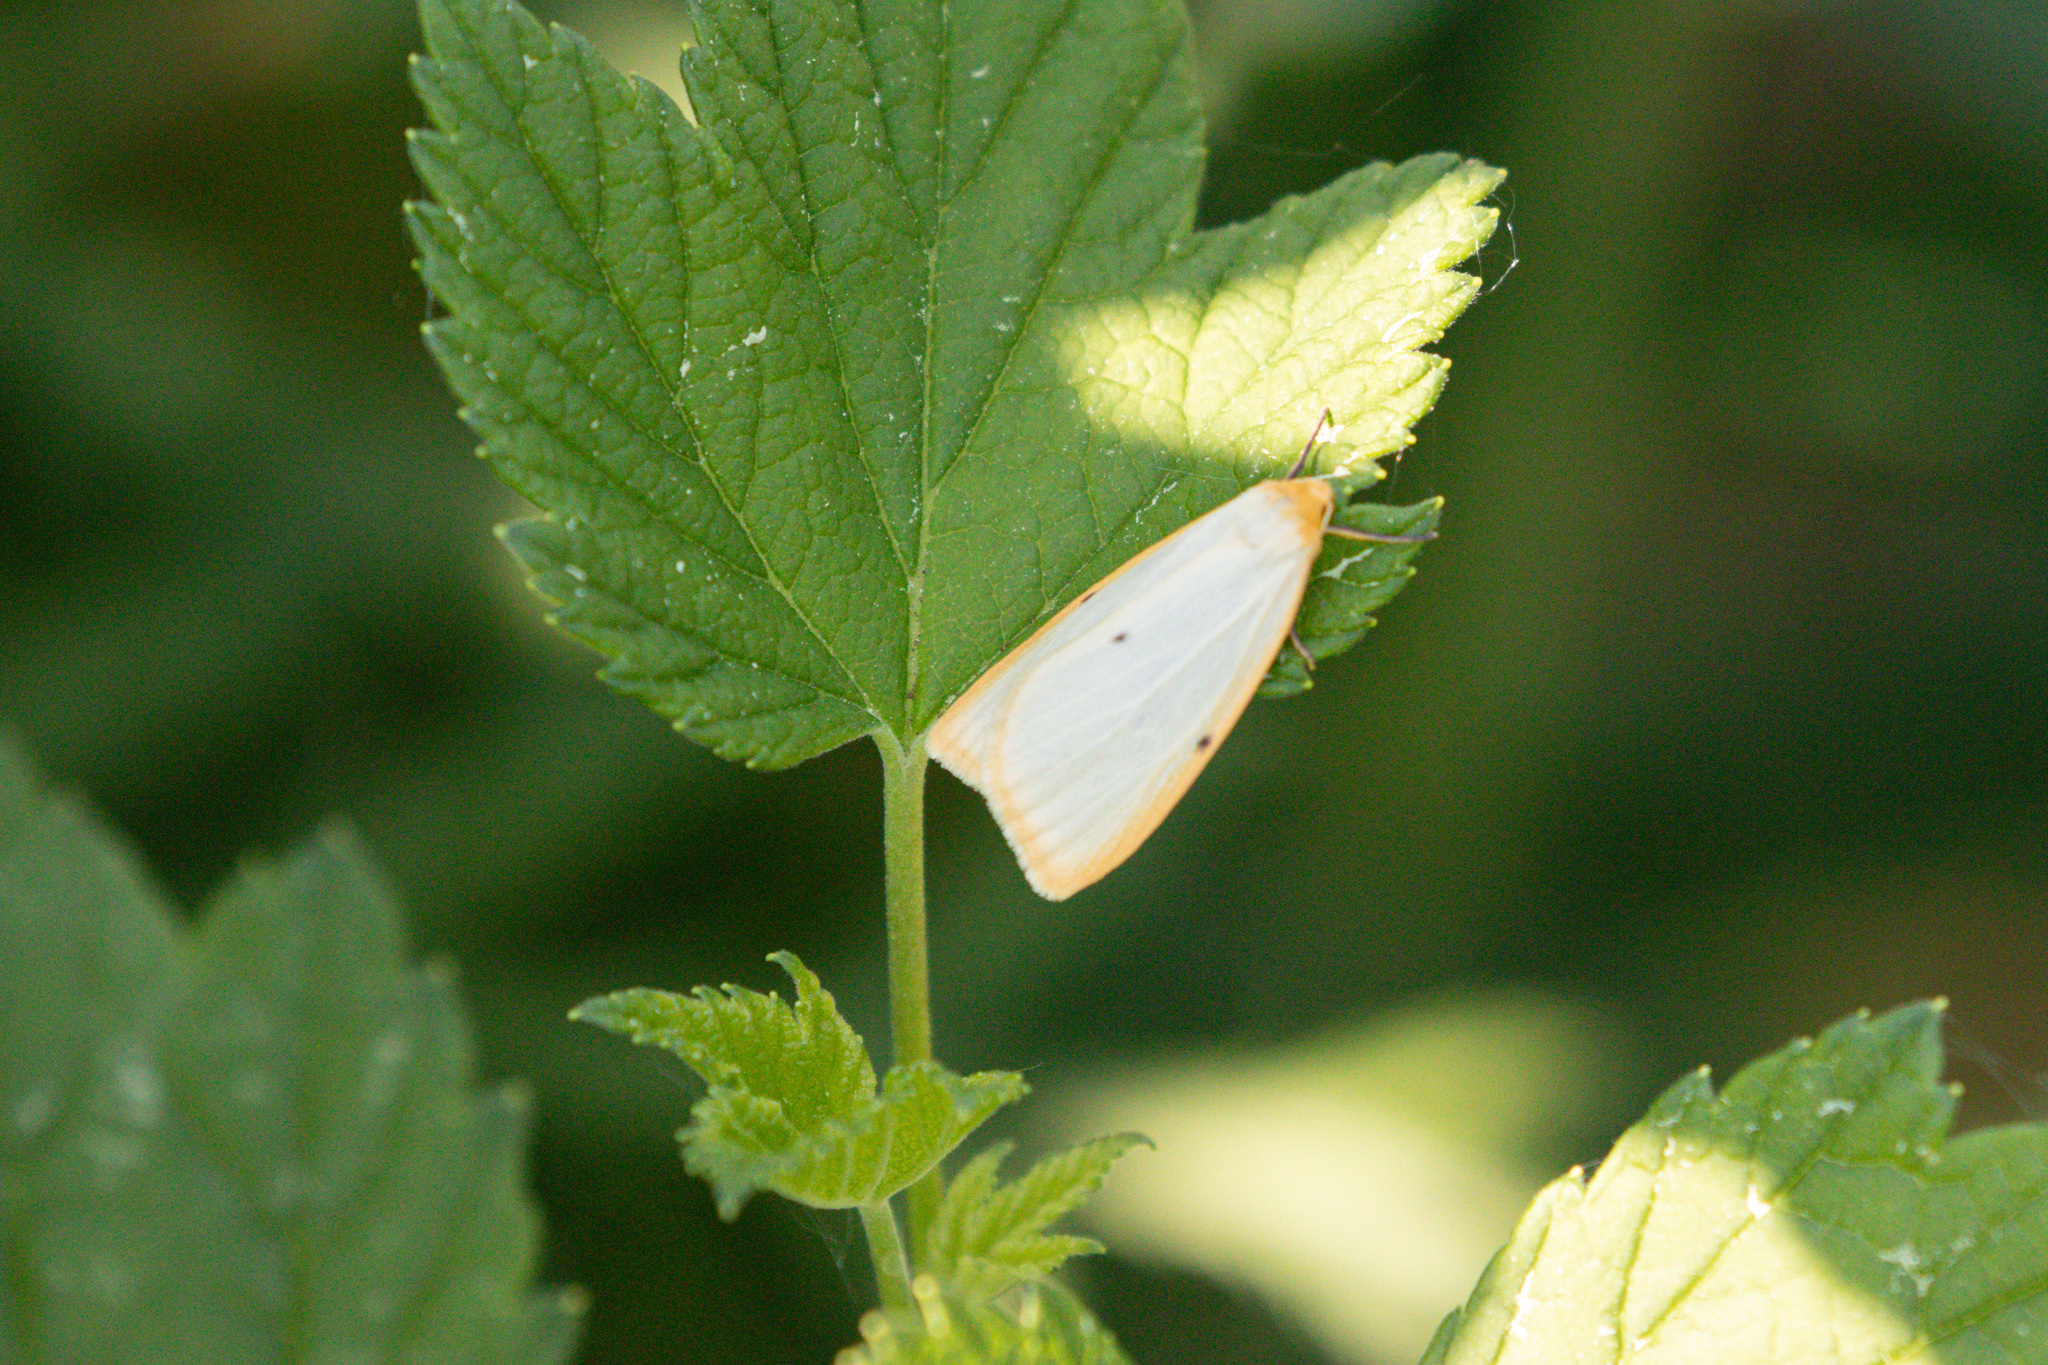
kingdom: Animalia
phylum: Arthropoda
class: Insecta
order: Lepidoptera
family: Erebidae
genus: Cybosia
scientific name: Cybosia mesomella
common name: Four-dotted footman
